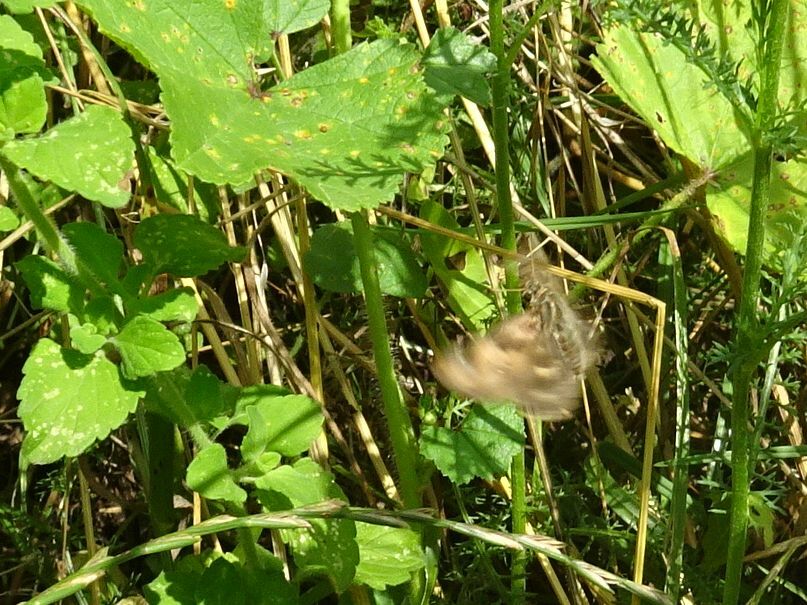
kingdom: Animalia
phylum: Arthropoda
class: Insecta
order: Lepidoptera
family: Hesperiidae
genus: Carcharodus
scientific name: Carcharodus alceae
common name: Mallow skipper
